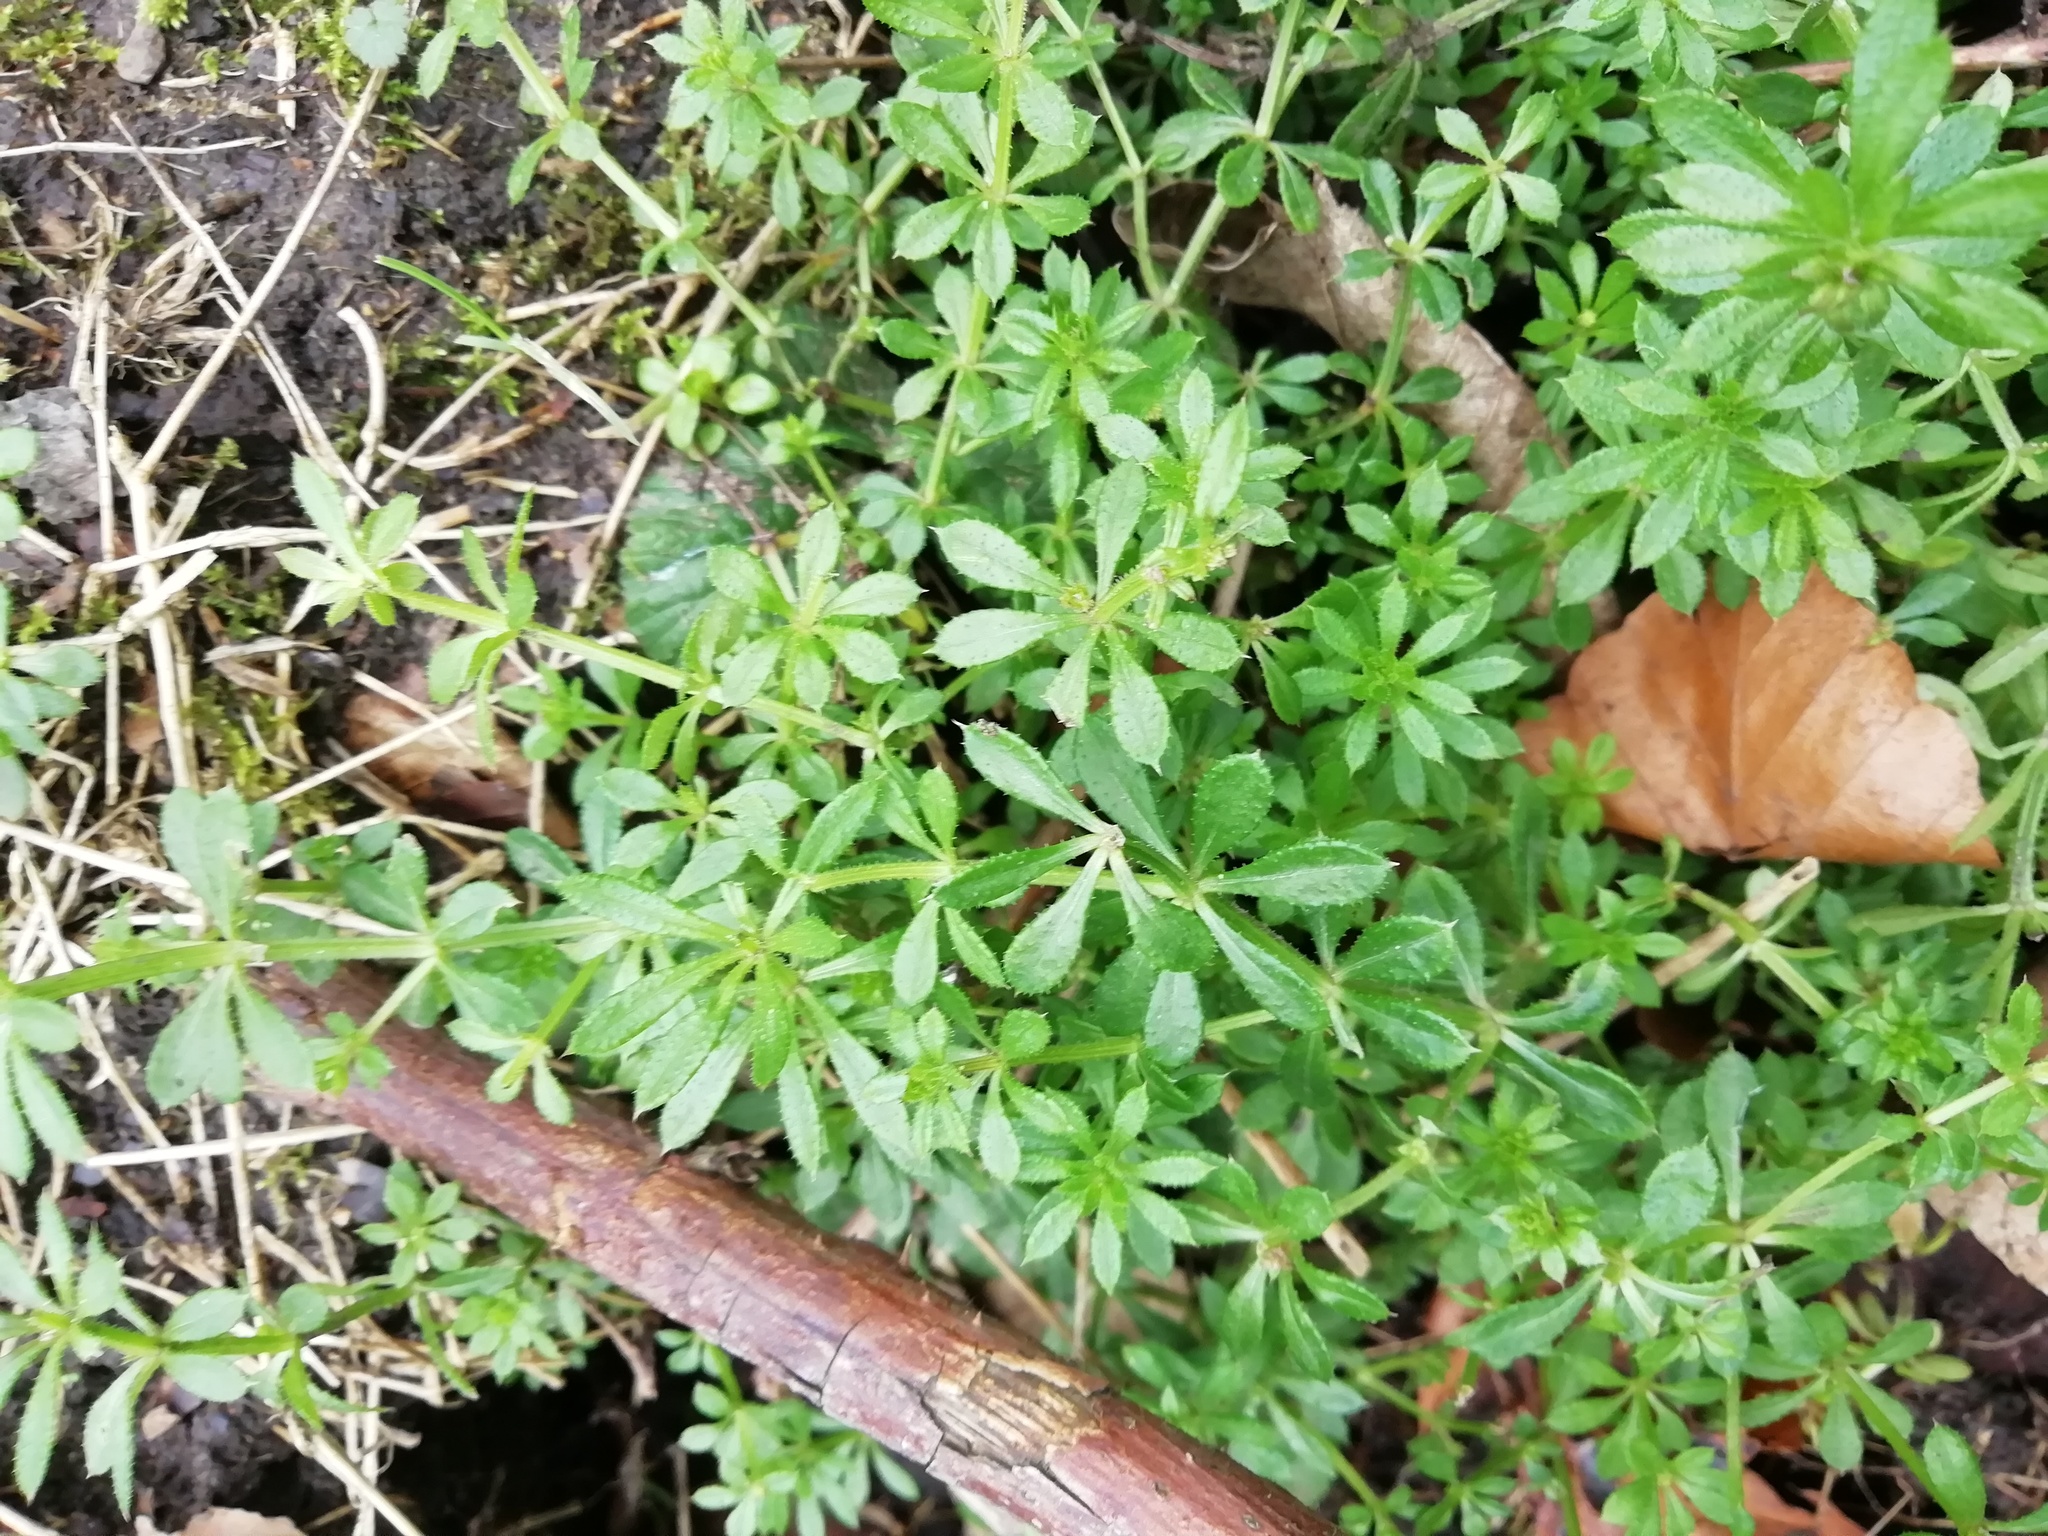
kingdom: Plantae
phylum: Tracheophyta
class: Magnoliopsida
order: Gentianales
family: Rubiaceae
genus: Galium
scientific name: Galium aparine
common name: Cleavers
